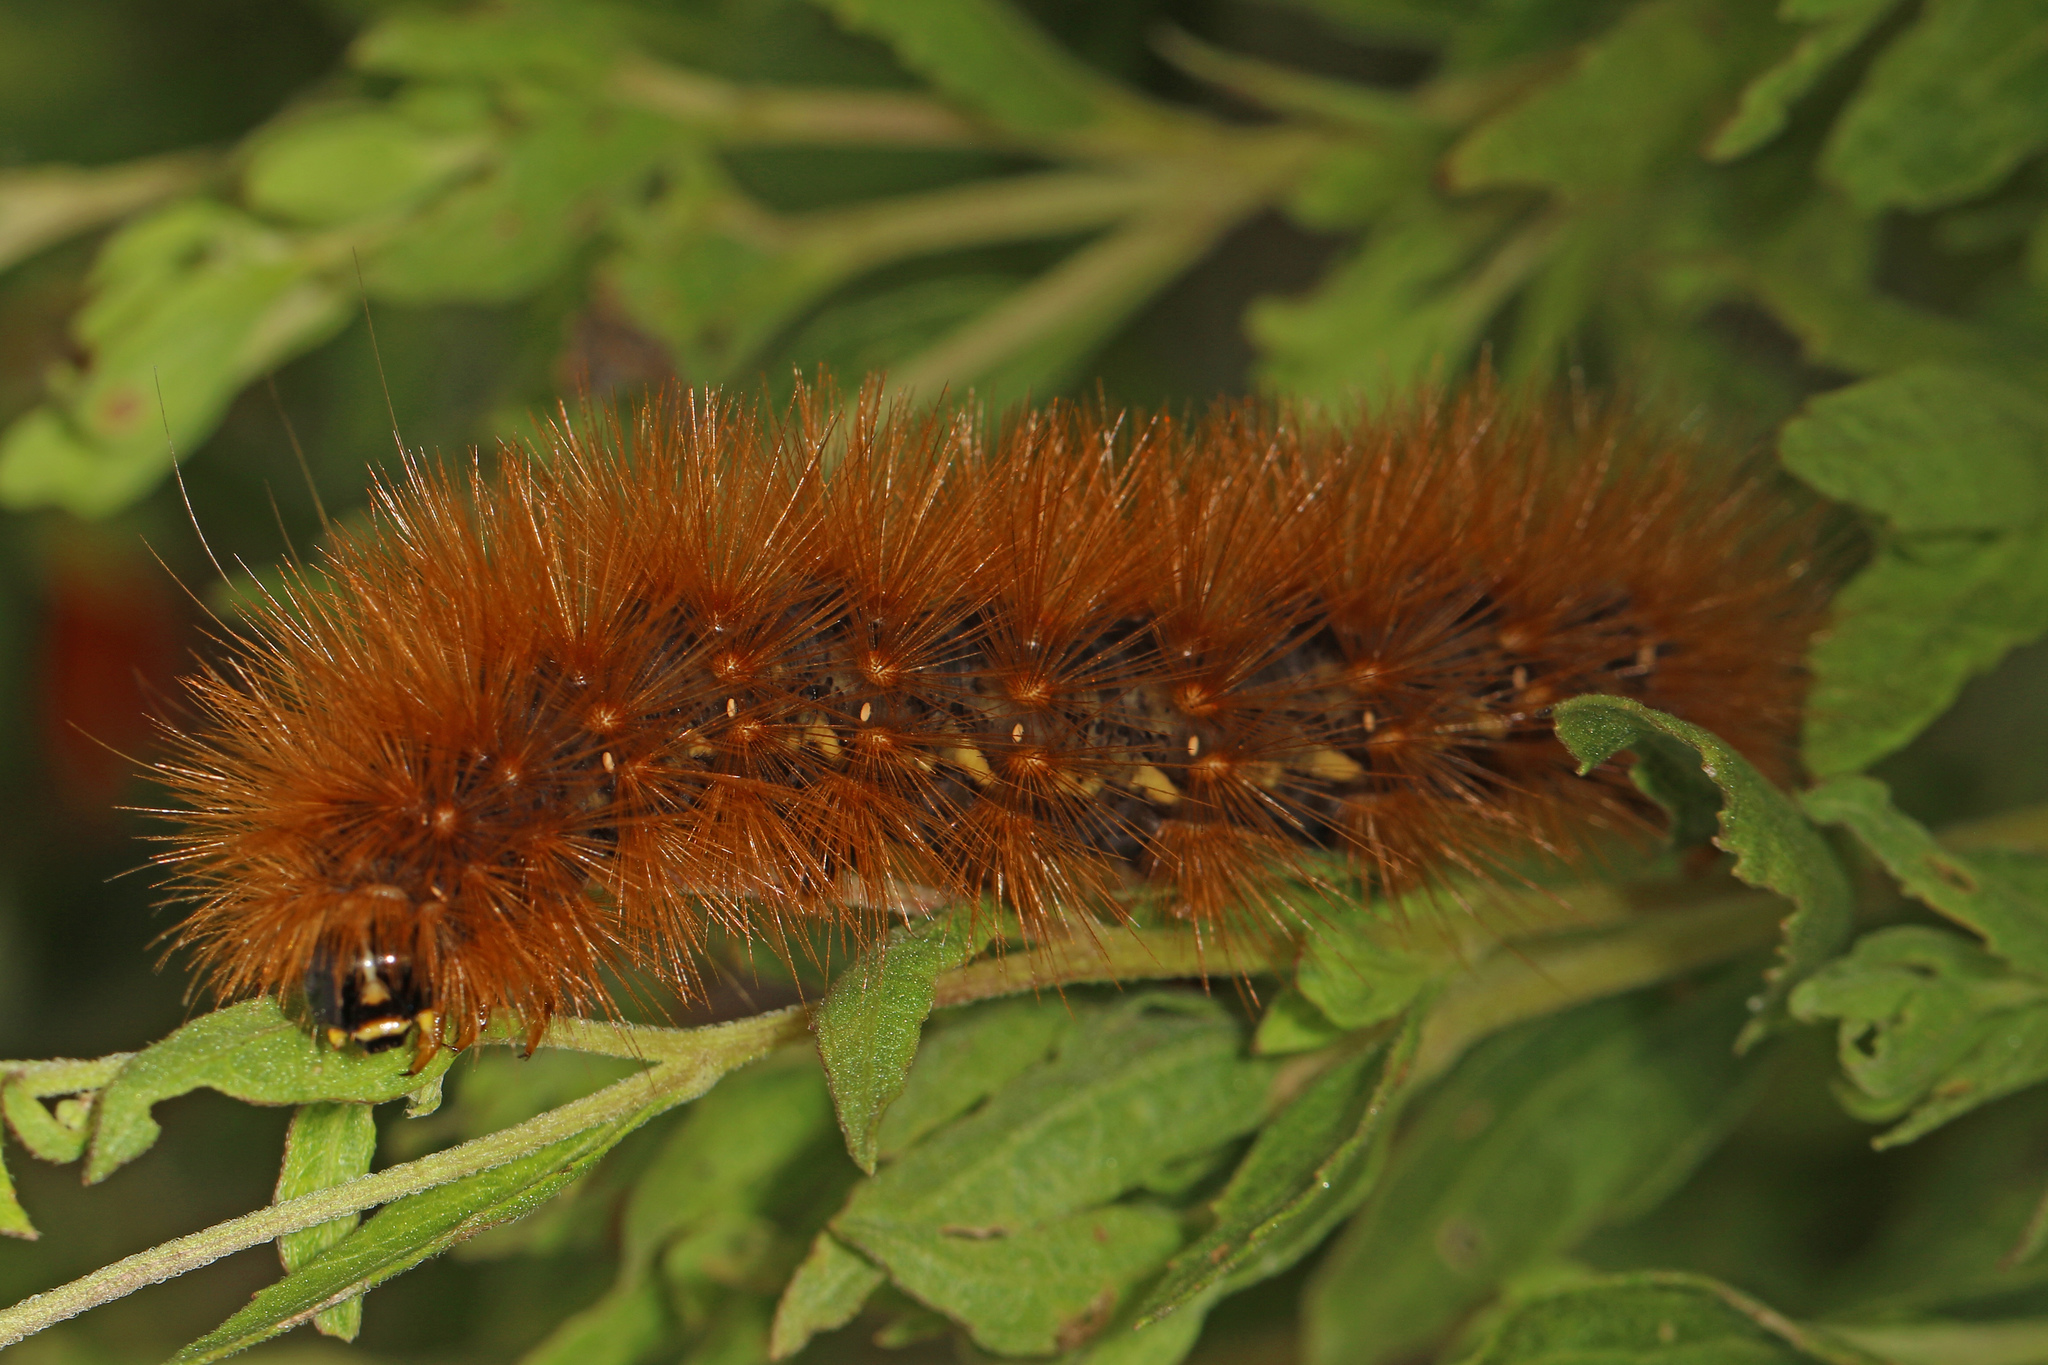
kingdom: Animalia
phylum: Arthropoda
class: Insecta
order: Lepidoptera
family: Erebidae
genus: Estigmene
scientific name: Estigmene acrea
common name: Salt marsh moth
